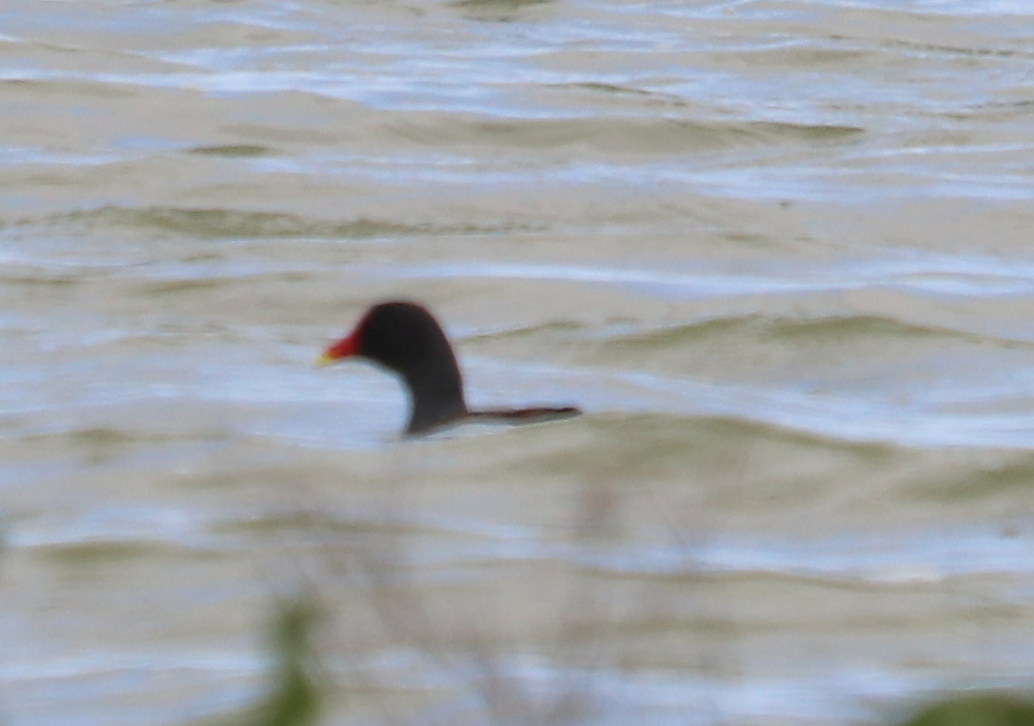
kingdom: Animalia
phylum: Chordata
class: Aves
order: Gruiformes
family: Rallidae
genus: Gallinula
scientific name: Gallinula chloropus
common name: Common moorhen
